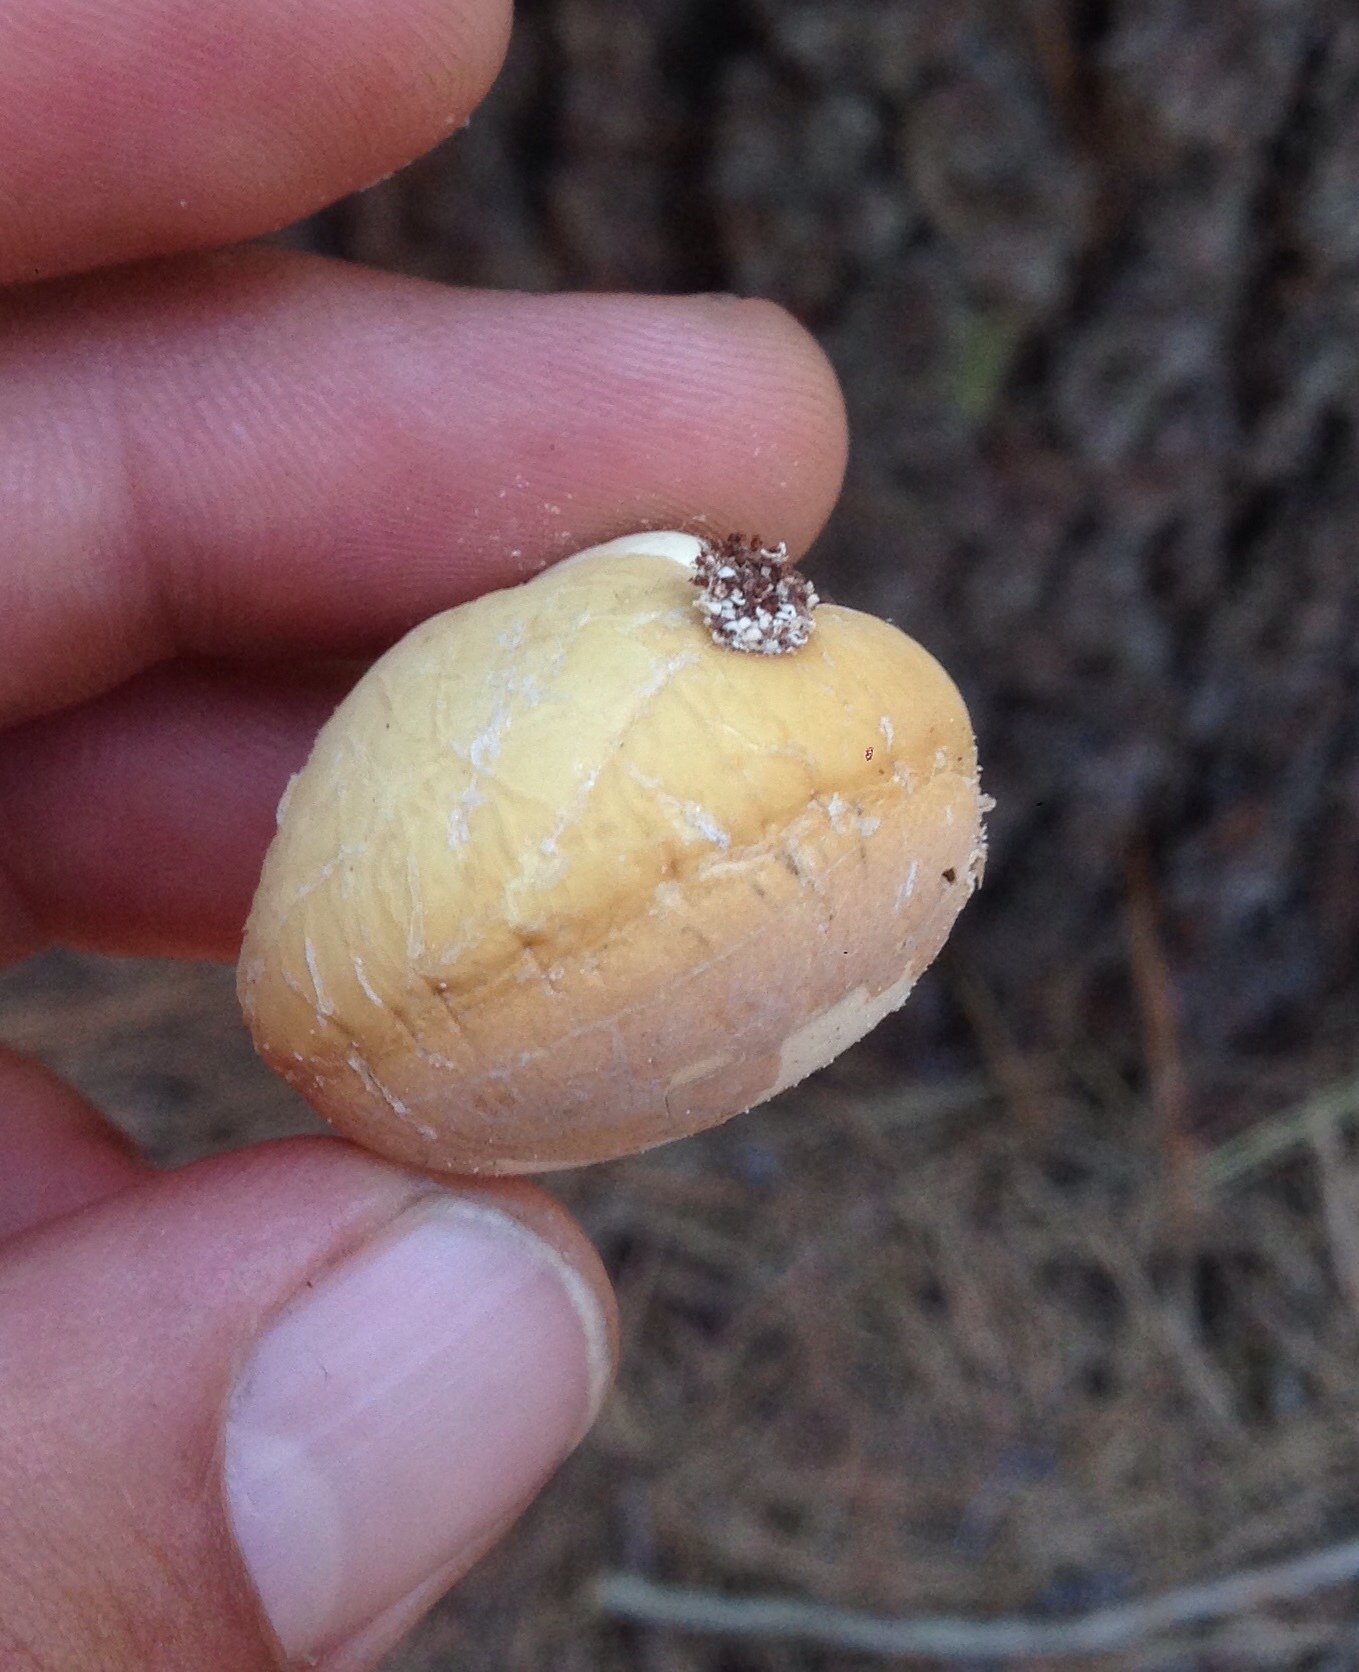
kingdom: Fungi
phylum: Basidiomycota
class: Agaricomycetes
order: Polyporales
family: Polyporaceae
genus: Cryptoporus
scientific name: Cryptoporus volvatus
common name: Veiled polypore
